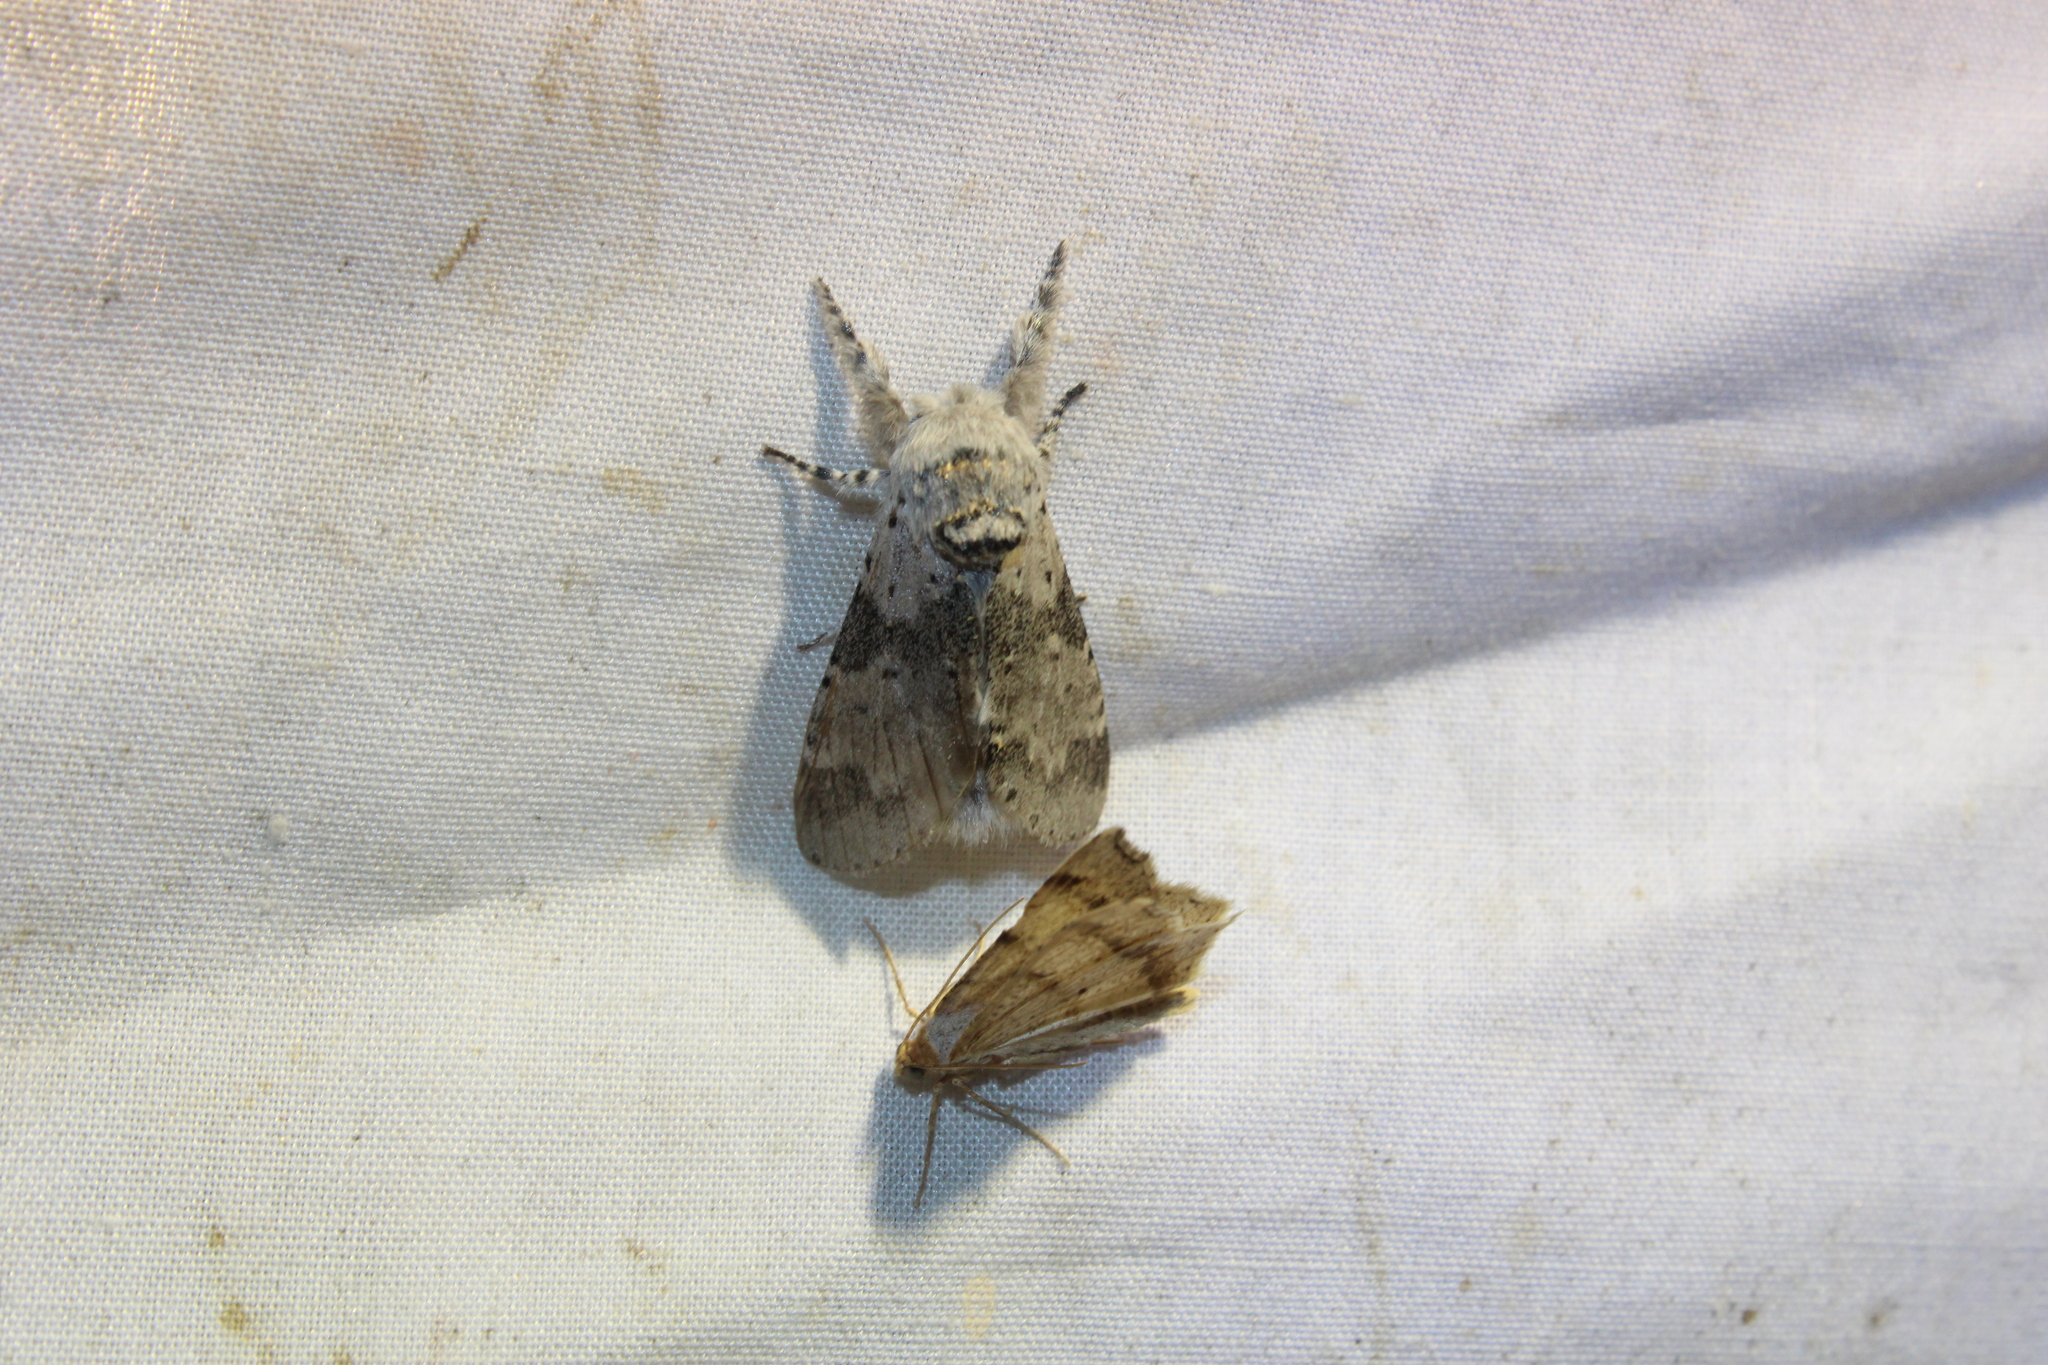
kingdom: Animalia
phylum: Arthropoda
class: Insecta
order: Lepidoptera
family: Notodontidae
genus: Furcula
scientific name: Furcula cinerea
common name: Gray furcula
